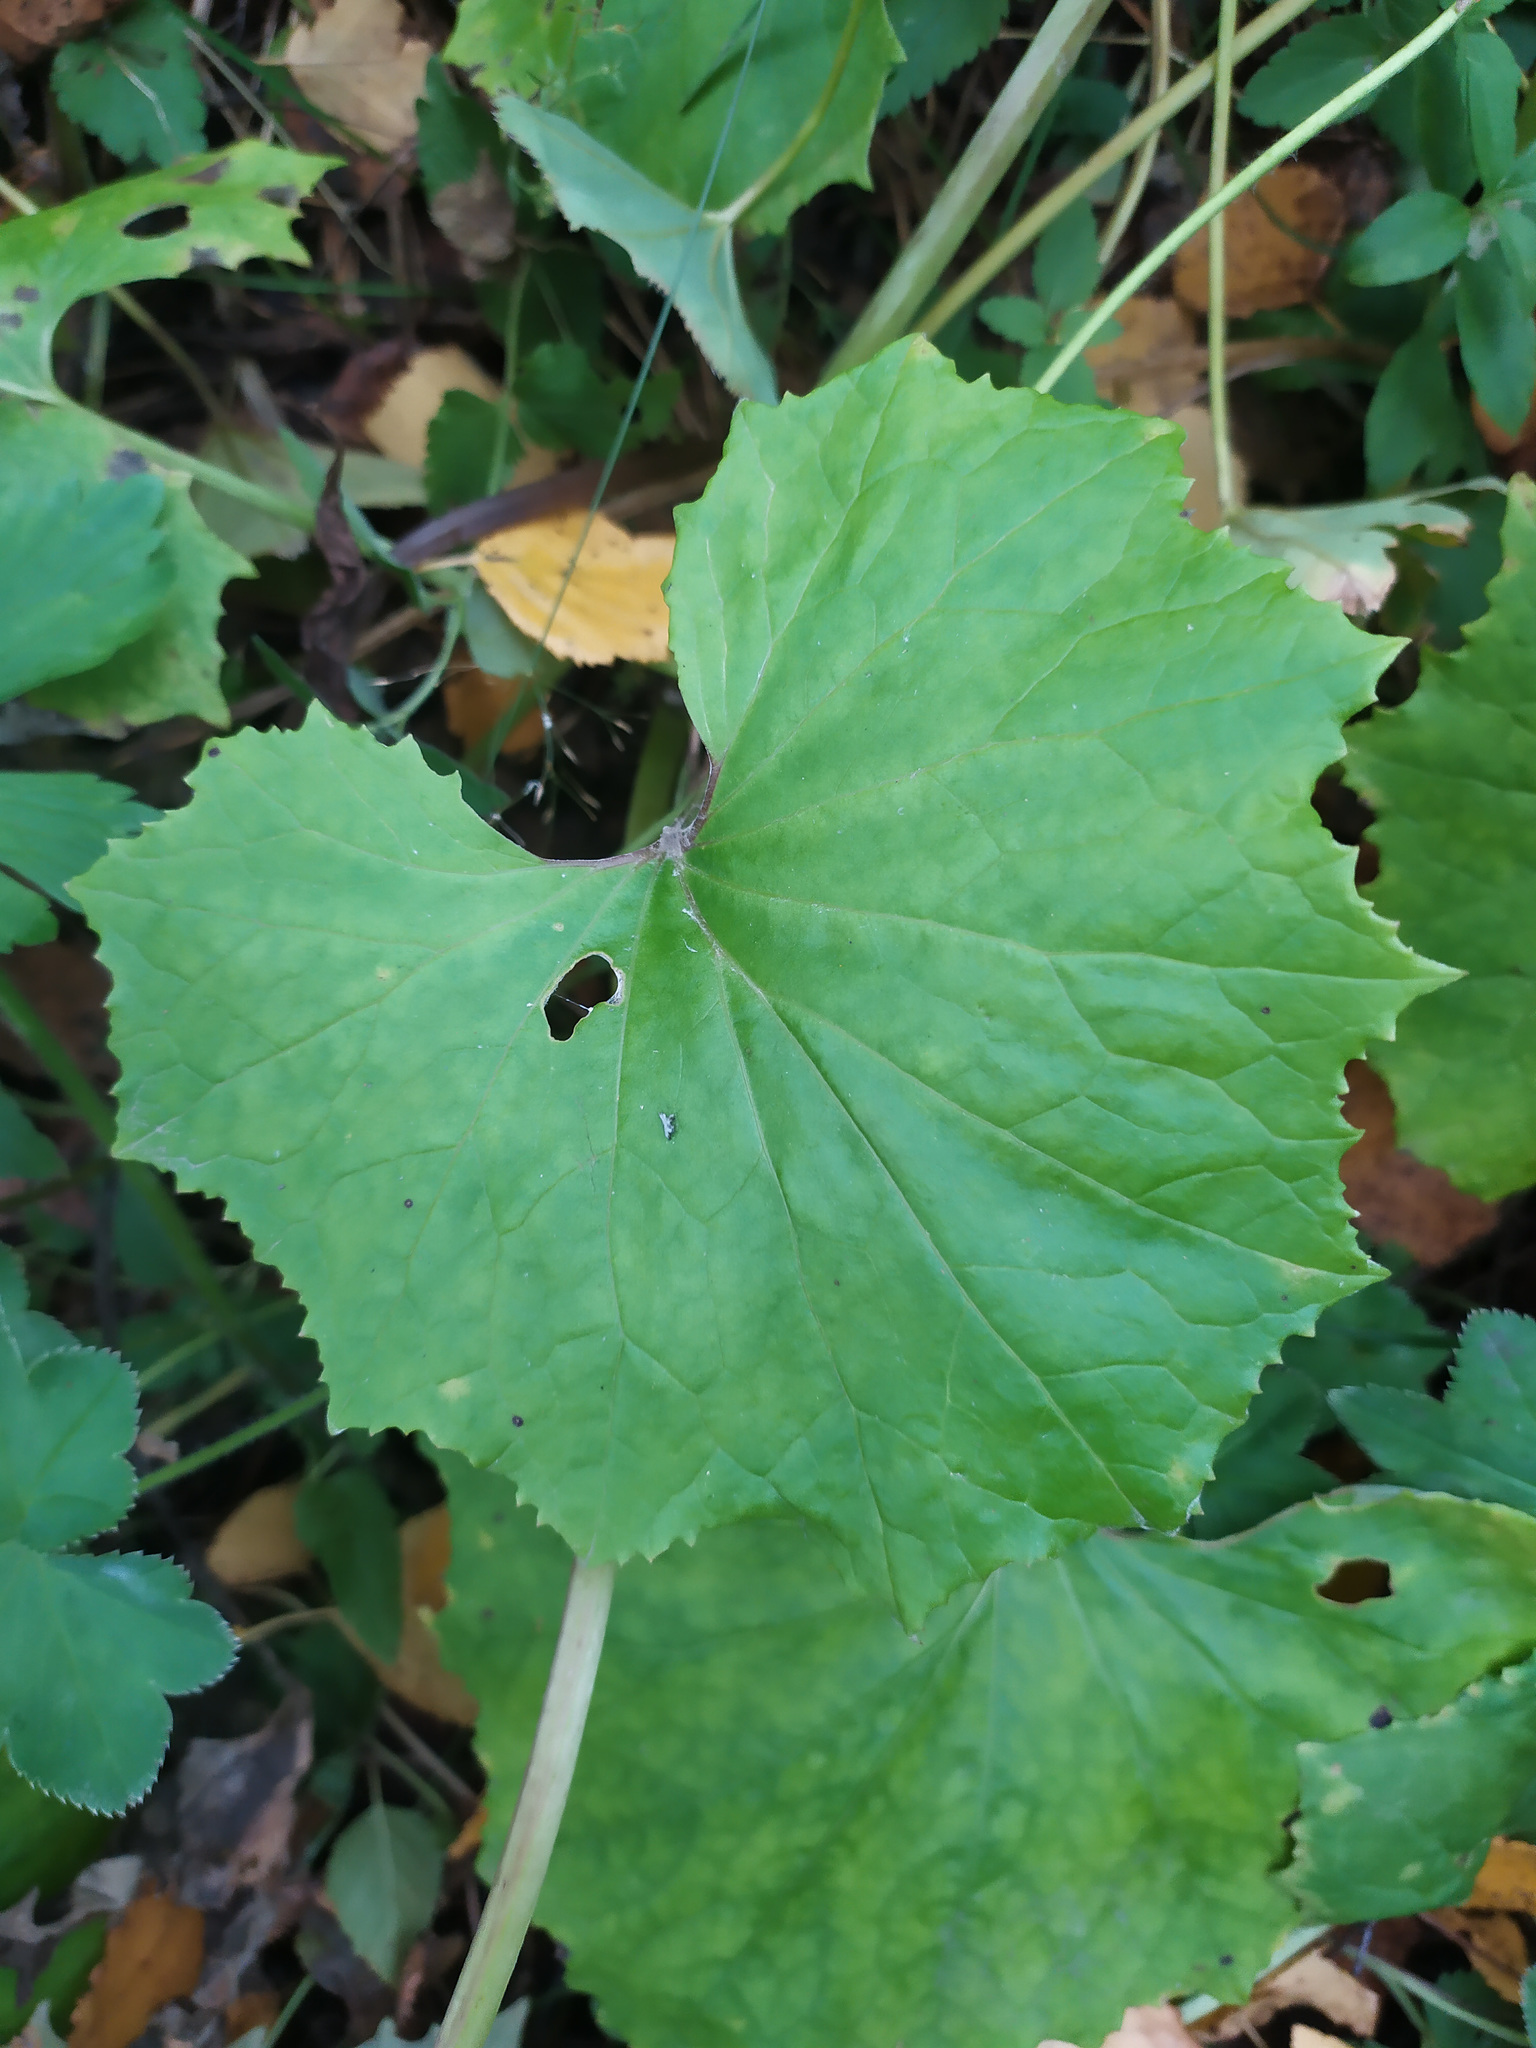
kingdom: Plantae
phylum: Tracheophyta
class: Magnoliopsida
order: Asterales
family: Asteraceae
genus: Tussilago
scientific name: Tussilago farfara
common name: Coltsfoot
